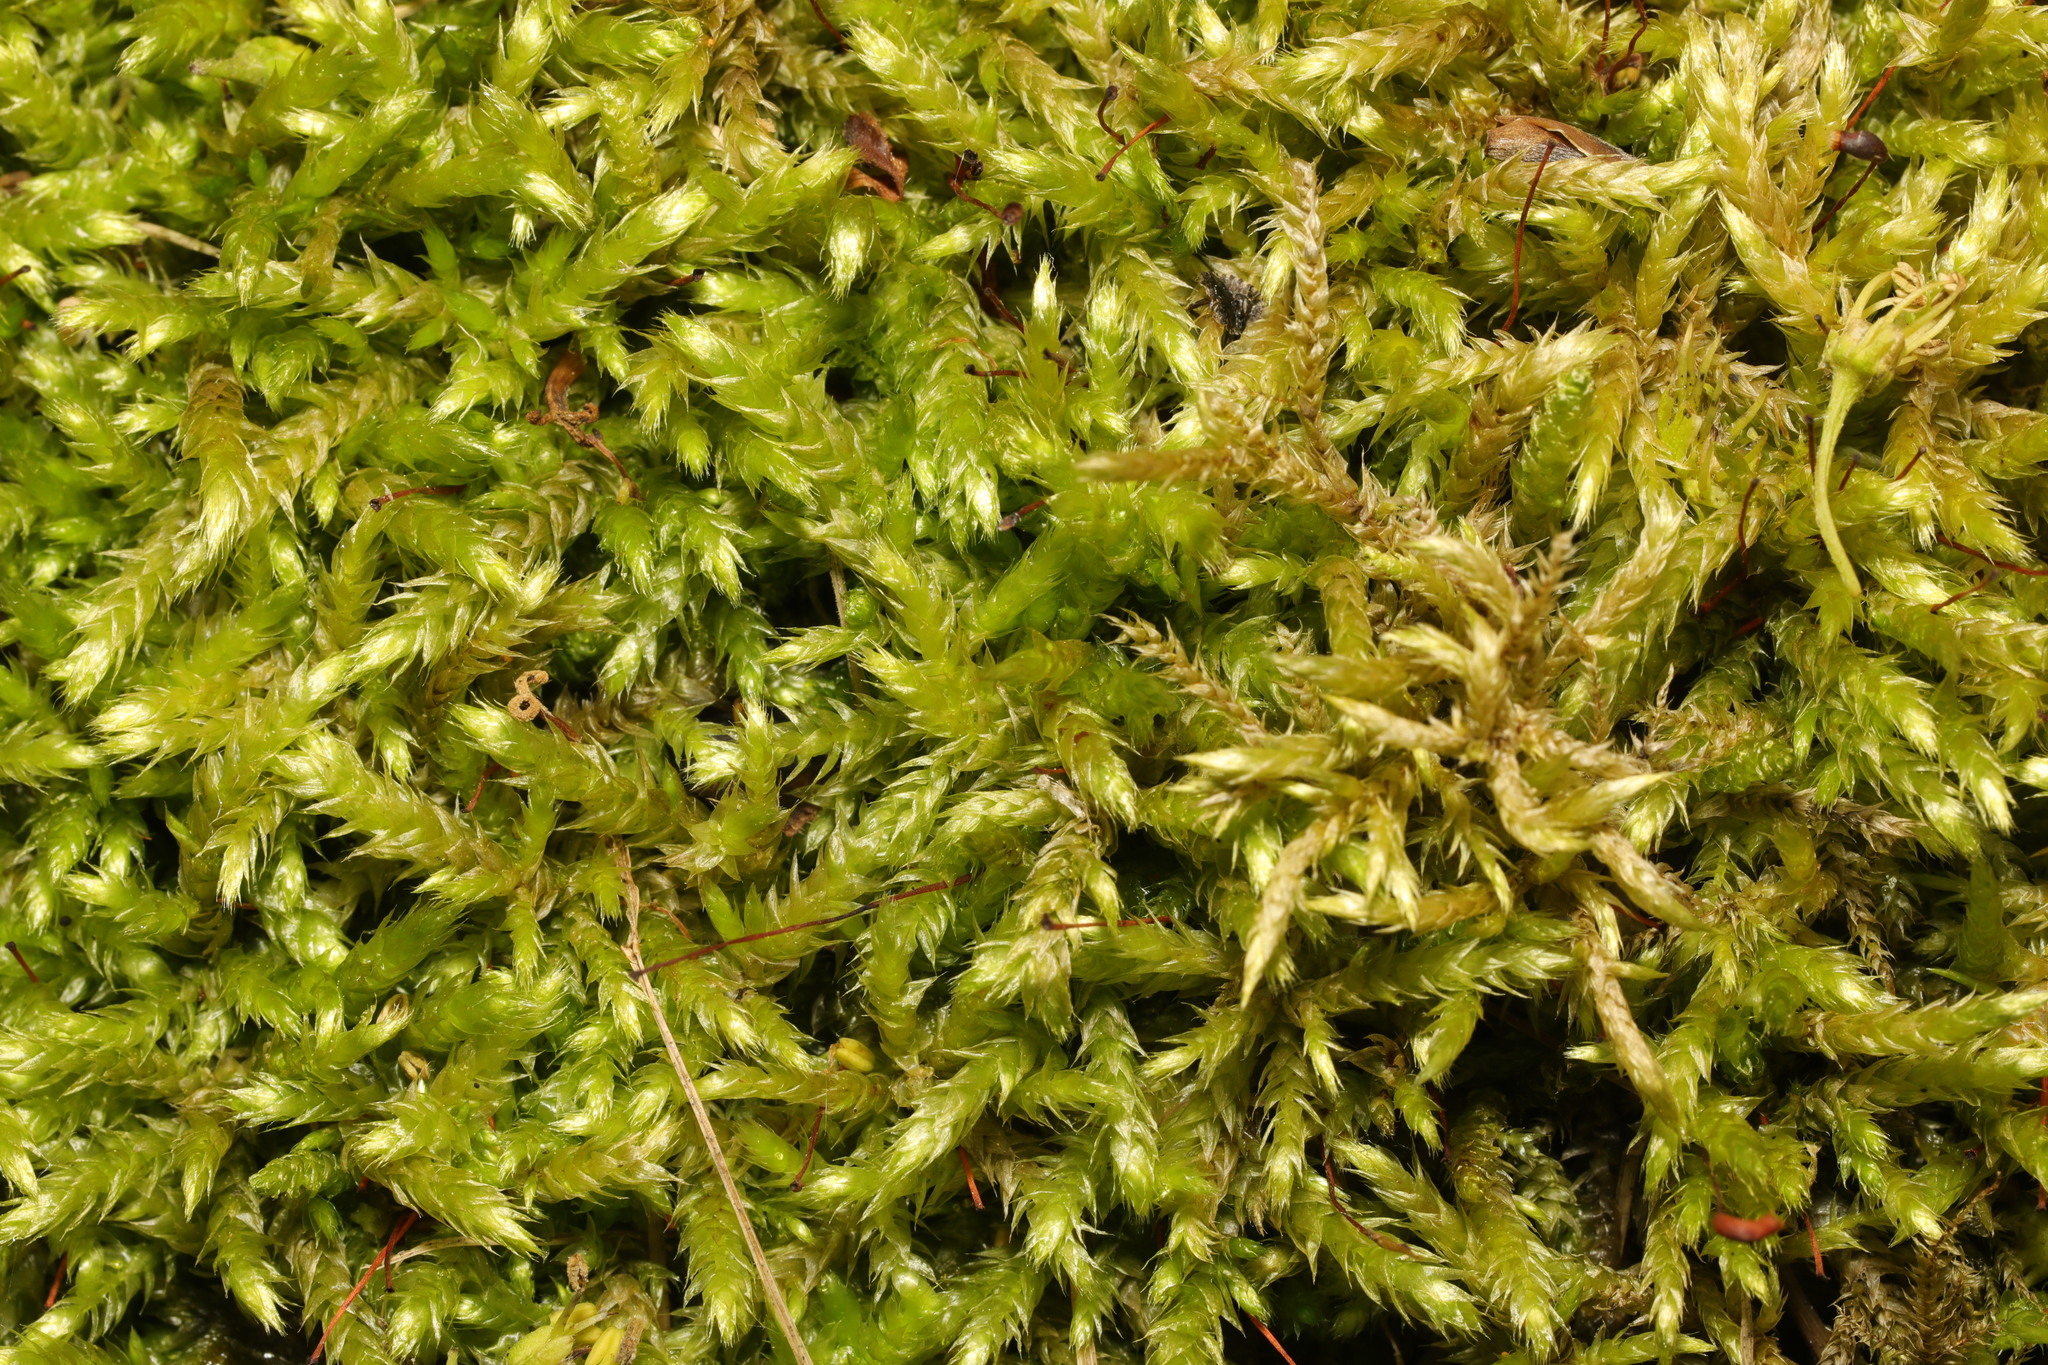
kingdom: Plantae
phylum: Bryophyta
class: Bryopsida
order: Hypnales
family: Brachytheciaceae
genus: Brachythecium
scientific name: Brachythecium rutabulum
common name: Rough-stalked feather-moss
